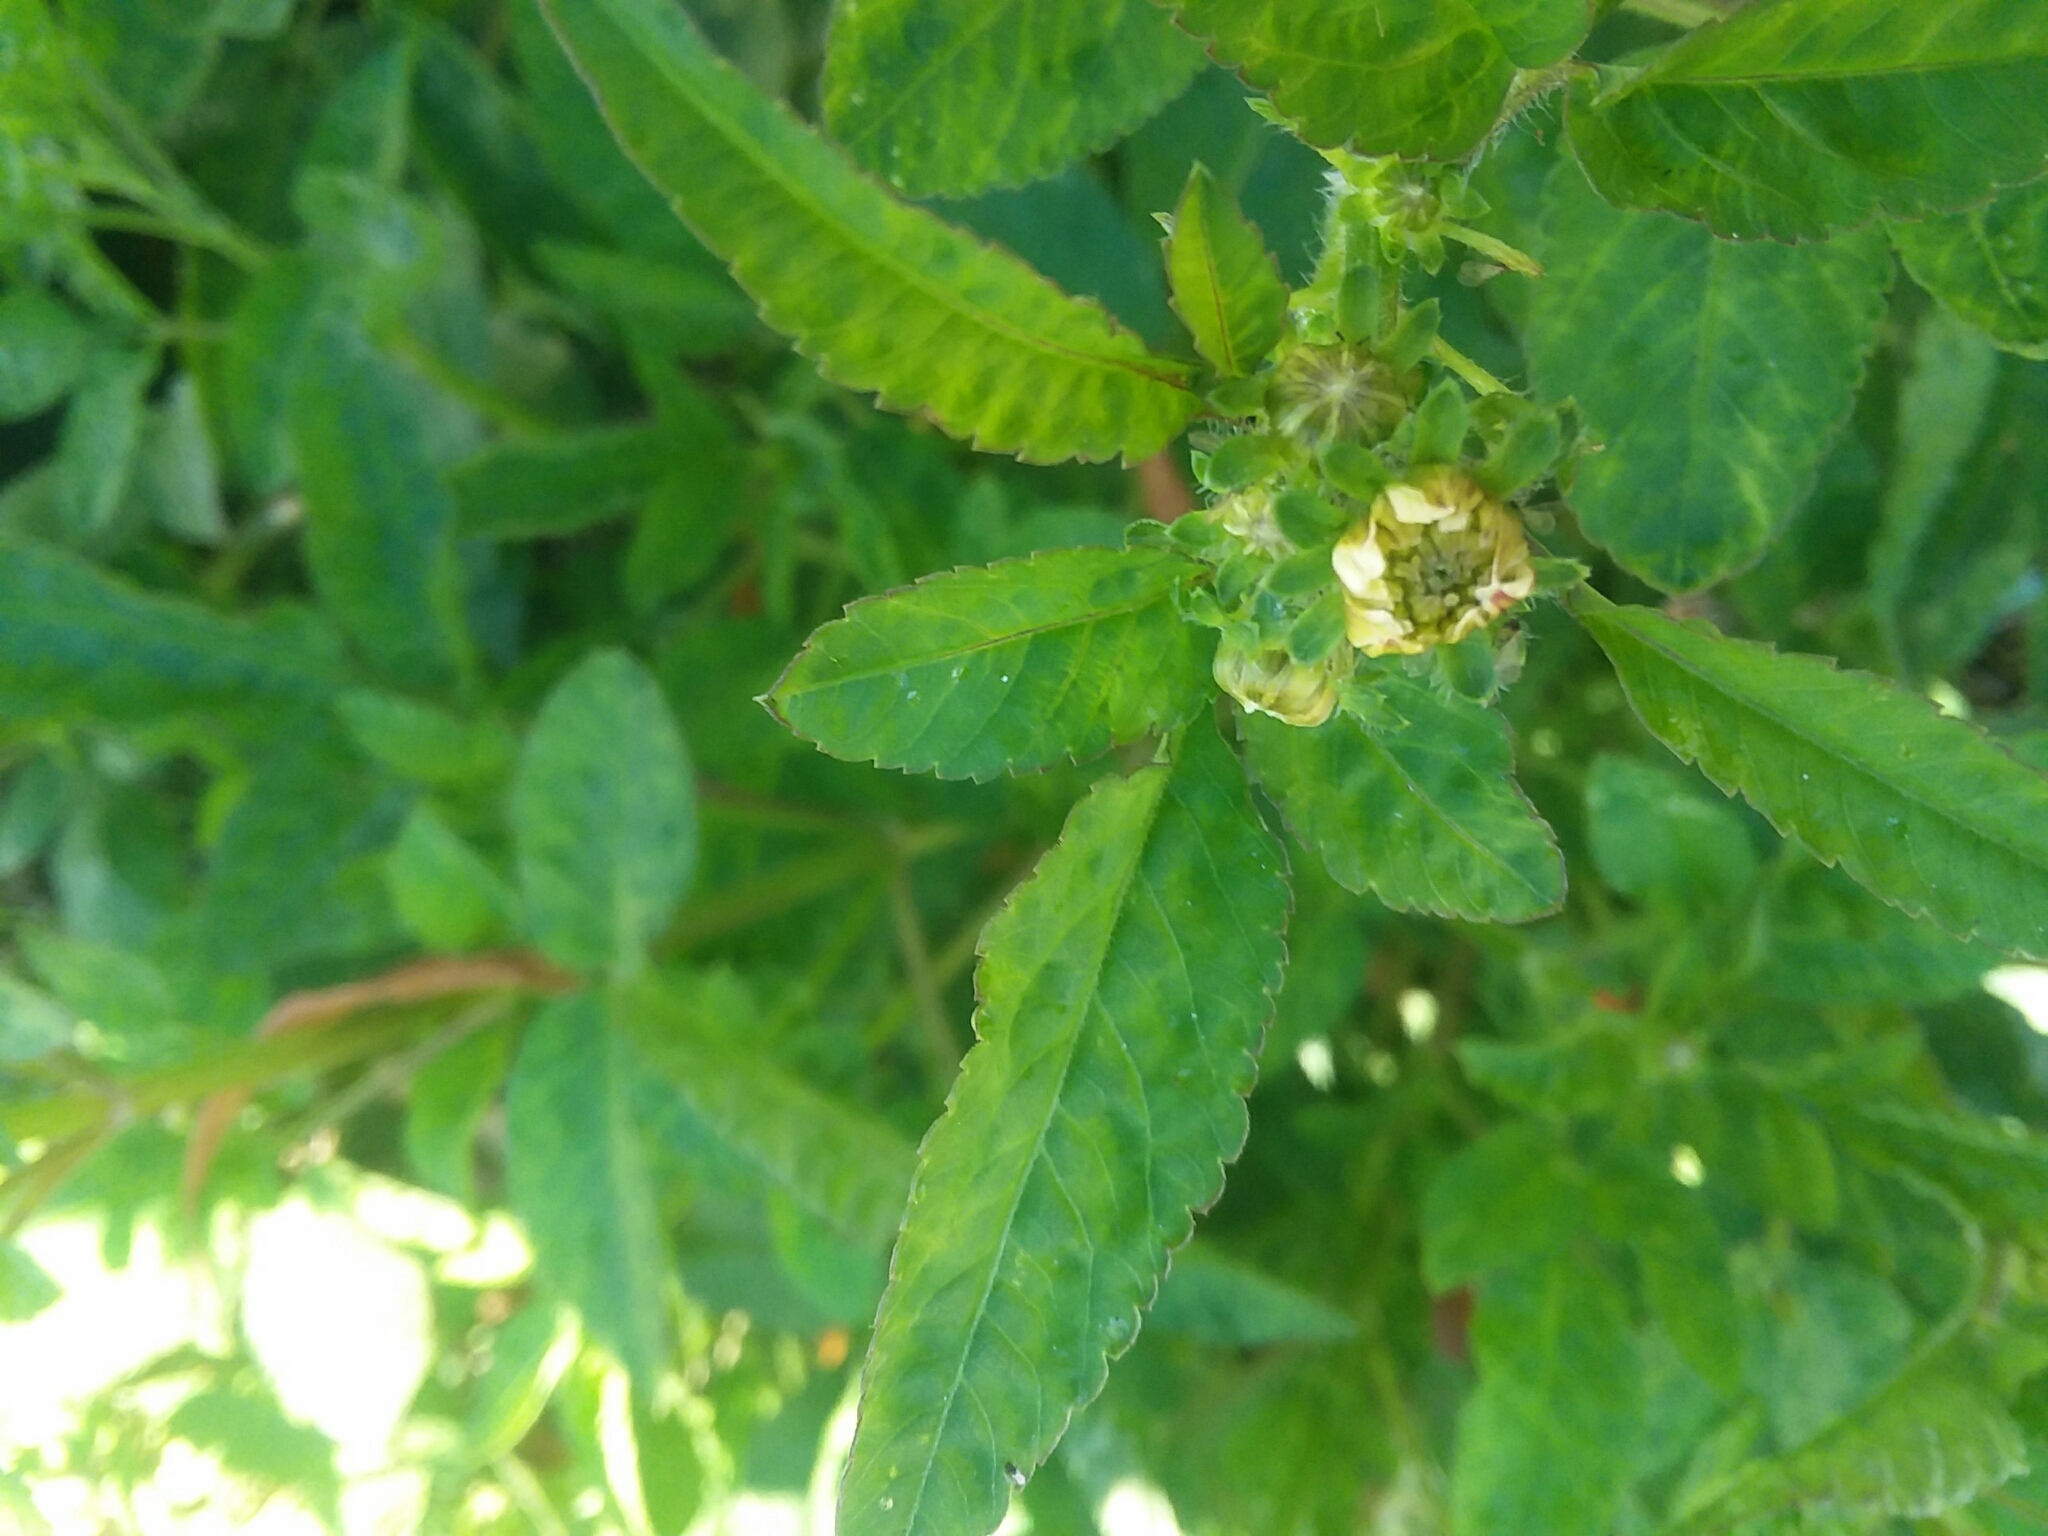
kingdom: Plantae
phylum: Tracheophyta
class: Magnoliopsida
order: Asterales
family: Asteraceae
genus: Bidens
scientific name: Bidens alba
